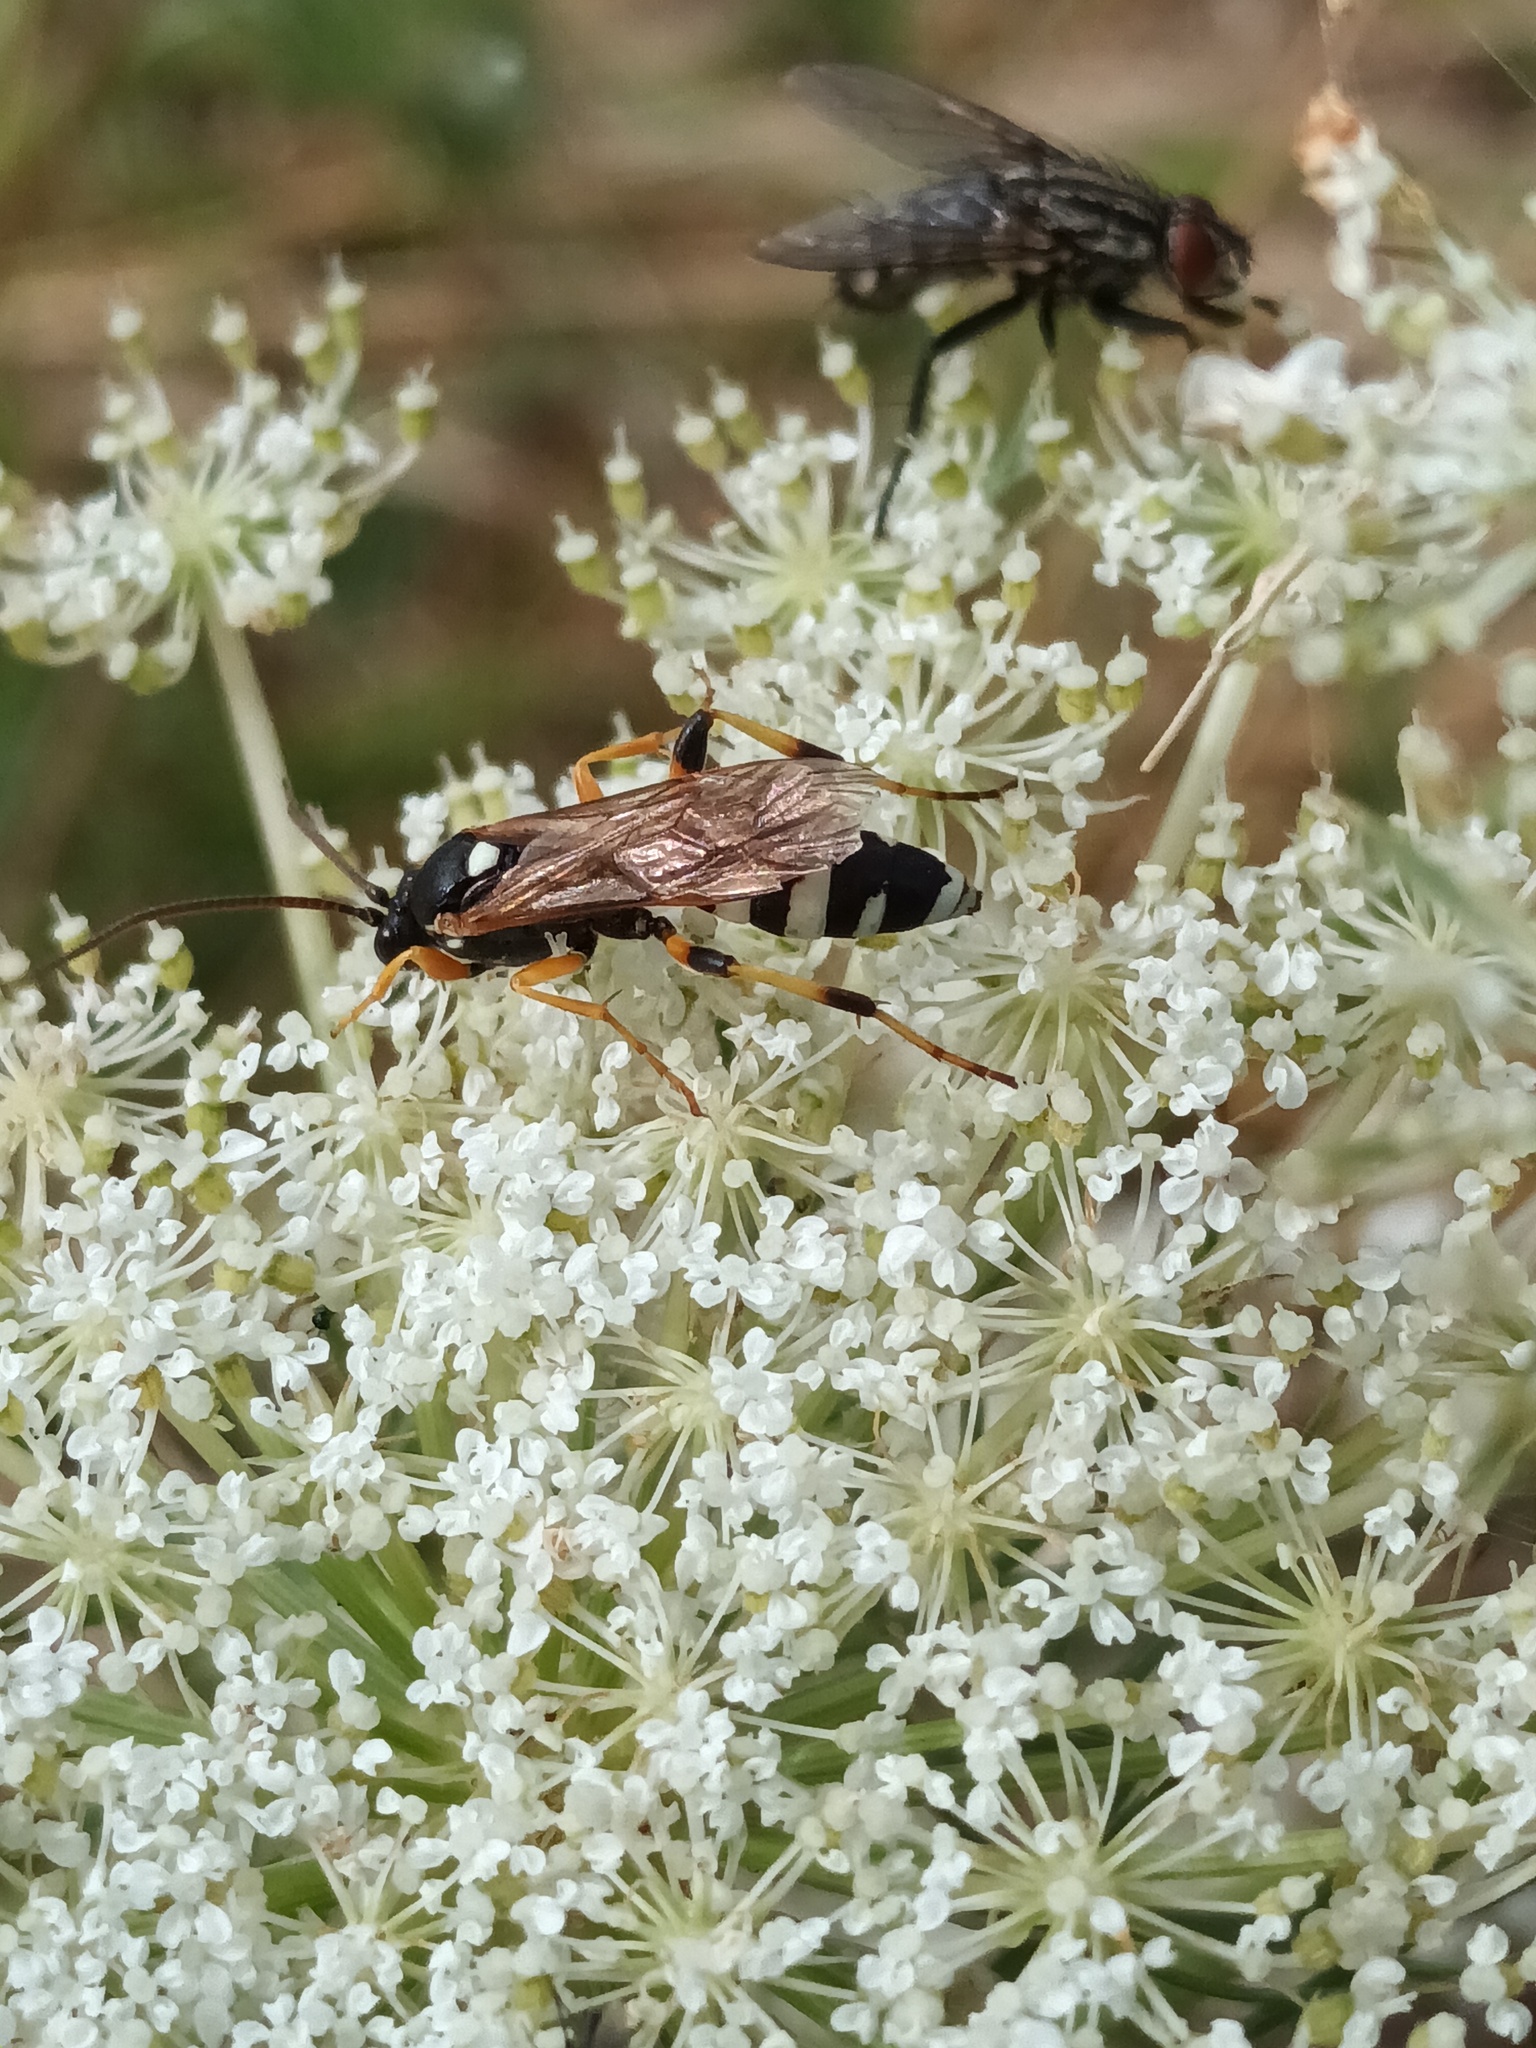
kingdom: Animalia
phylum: Arthropoda
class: Insecta
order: Hymenoptera
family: Ichneumonidae
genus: Ichneumon
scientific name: Ichneumon sarcitorius
